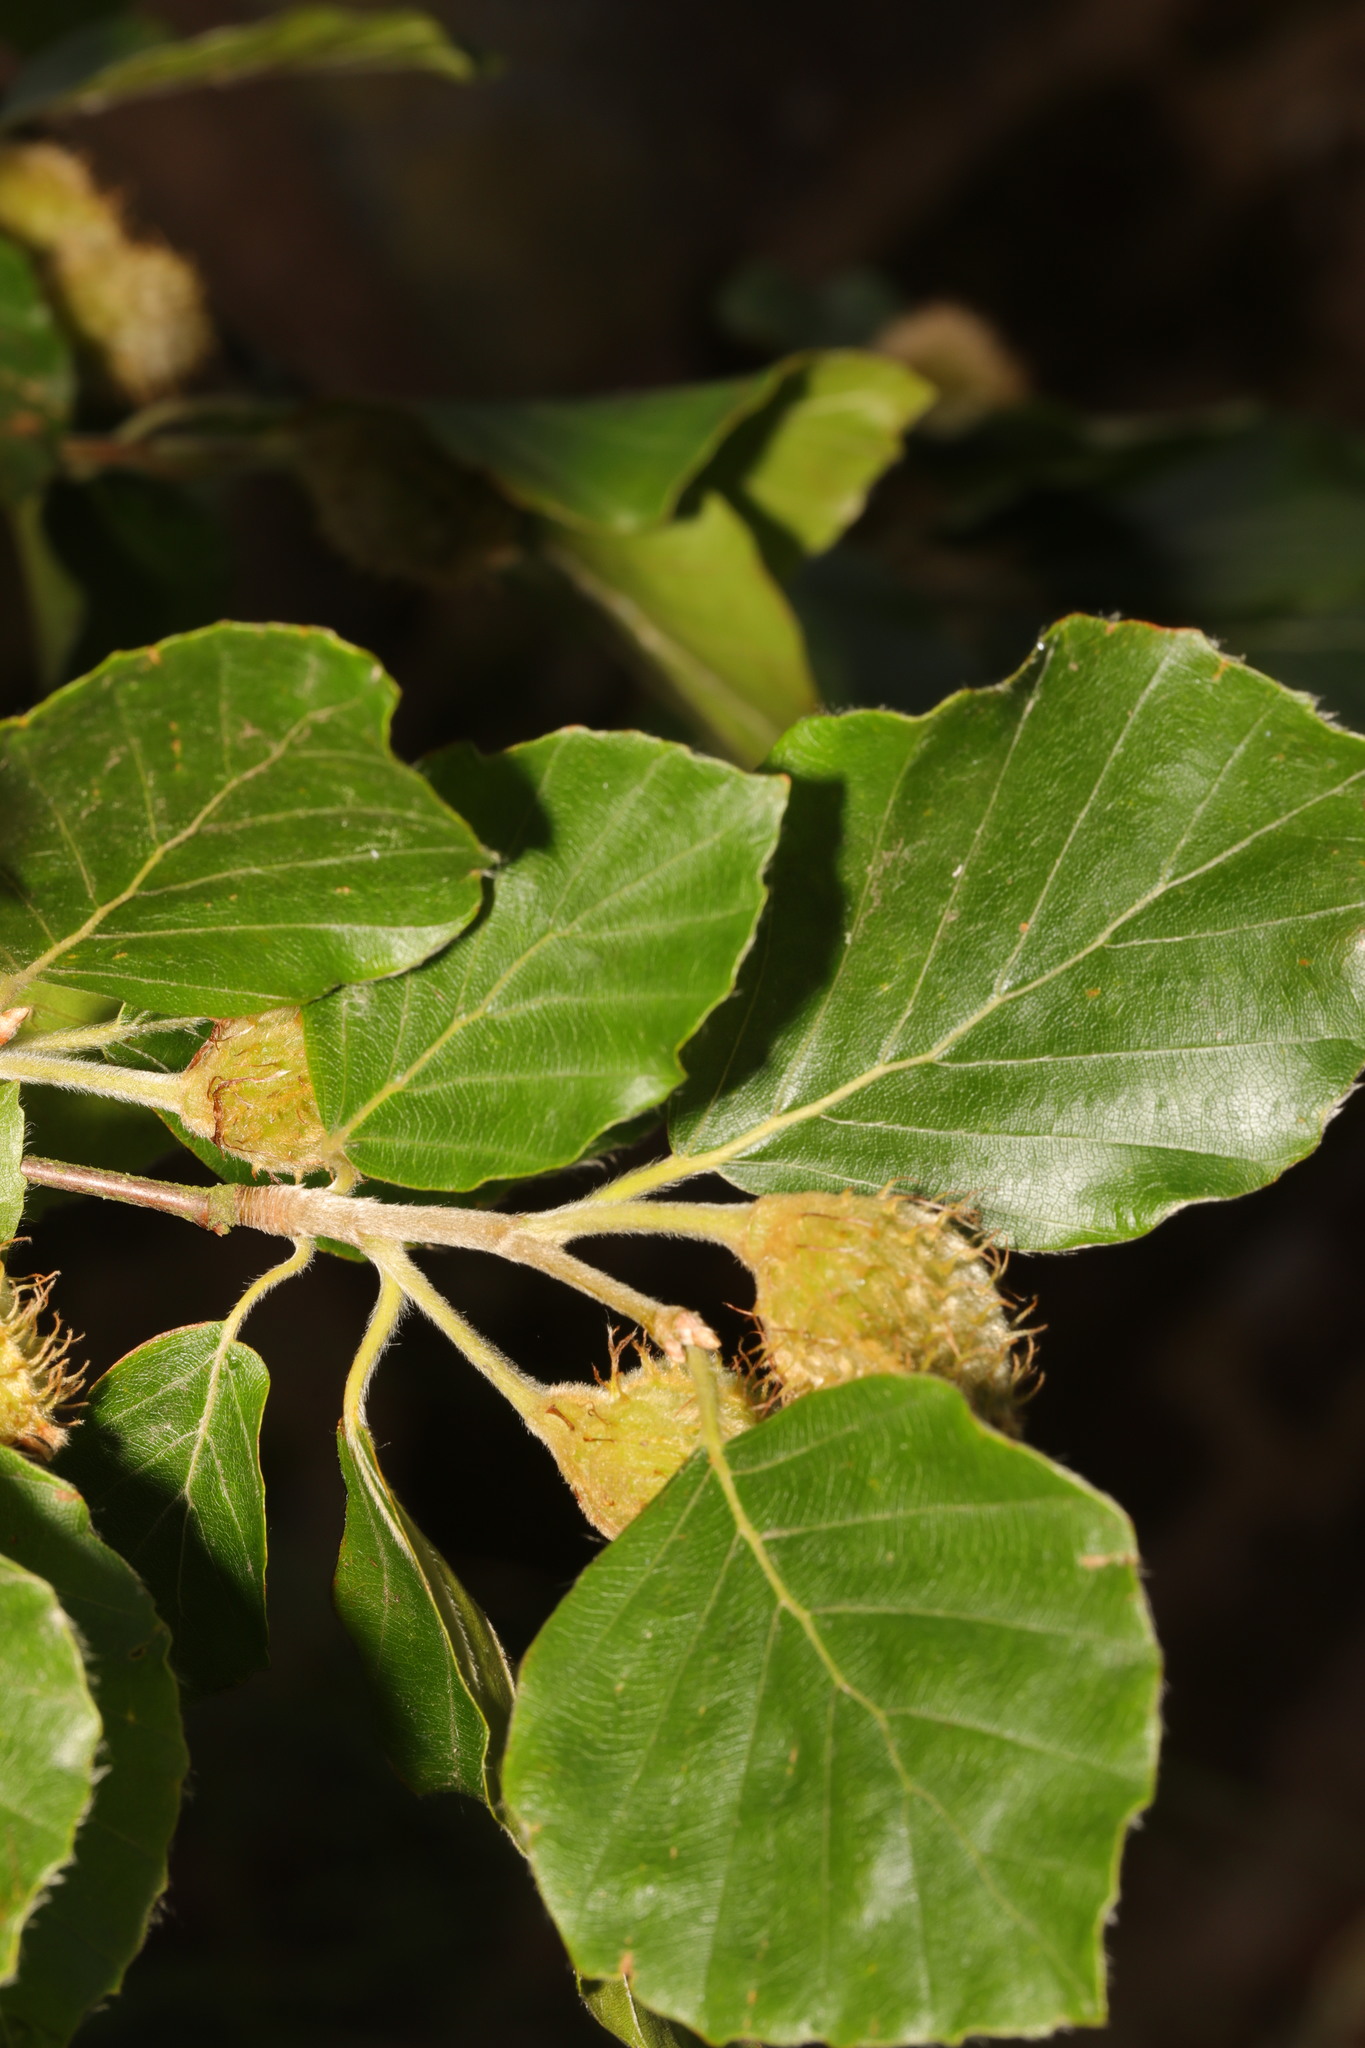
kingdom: Plantae
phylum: Tracheophyta
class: Magnoliopsida
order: Fagales
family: Fagaceae
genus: Fagus
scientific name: Fagus sylvatica
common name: Beech
